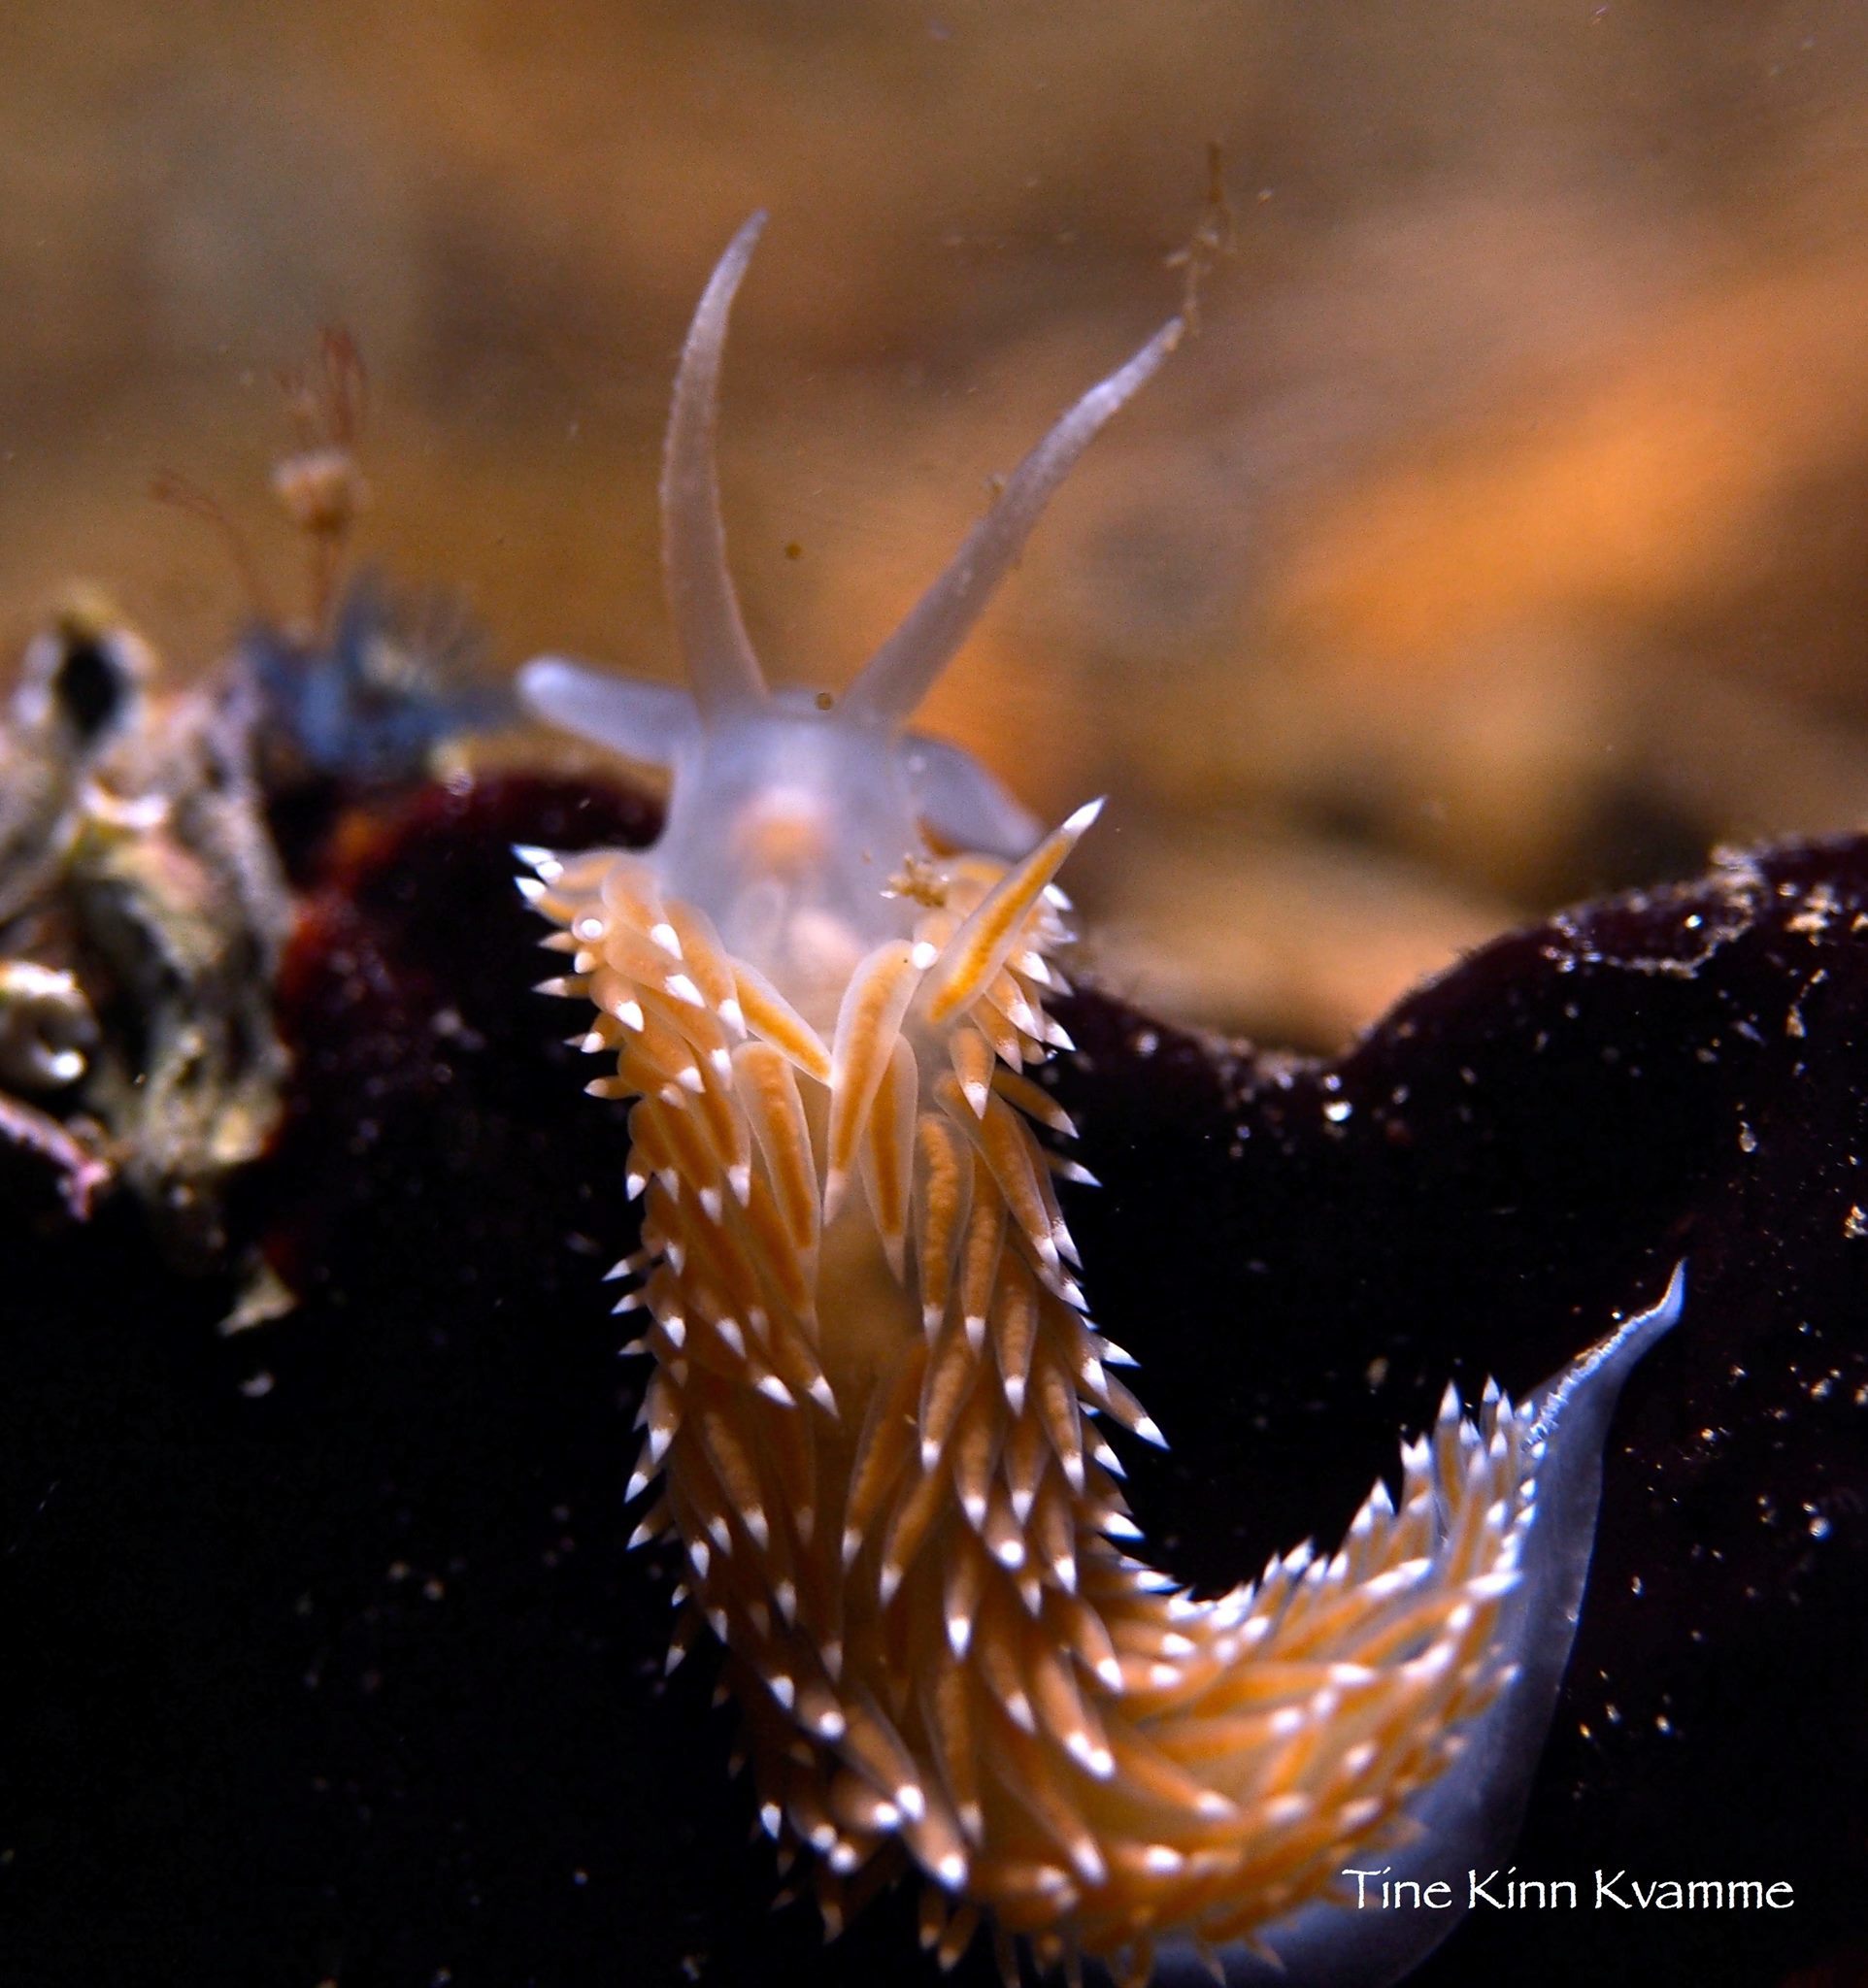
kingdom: Animalia
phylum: Mollusca
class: Gastropoda
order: Nudibranchia
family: Coryphellidae
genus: Coryphella
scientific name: Coryphella nobilis
